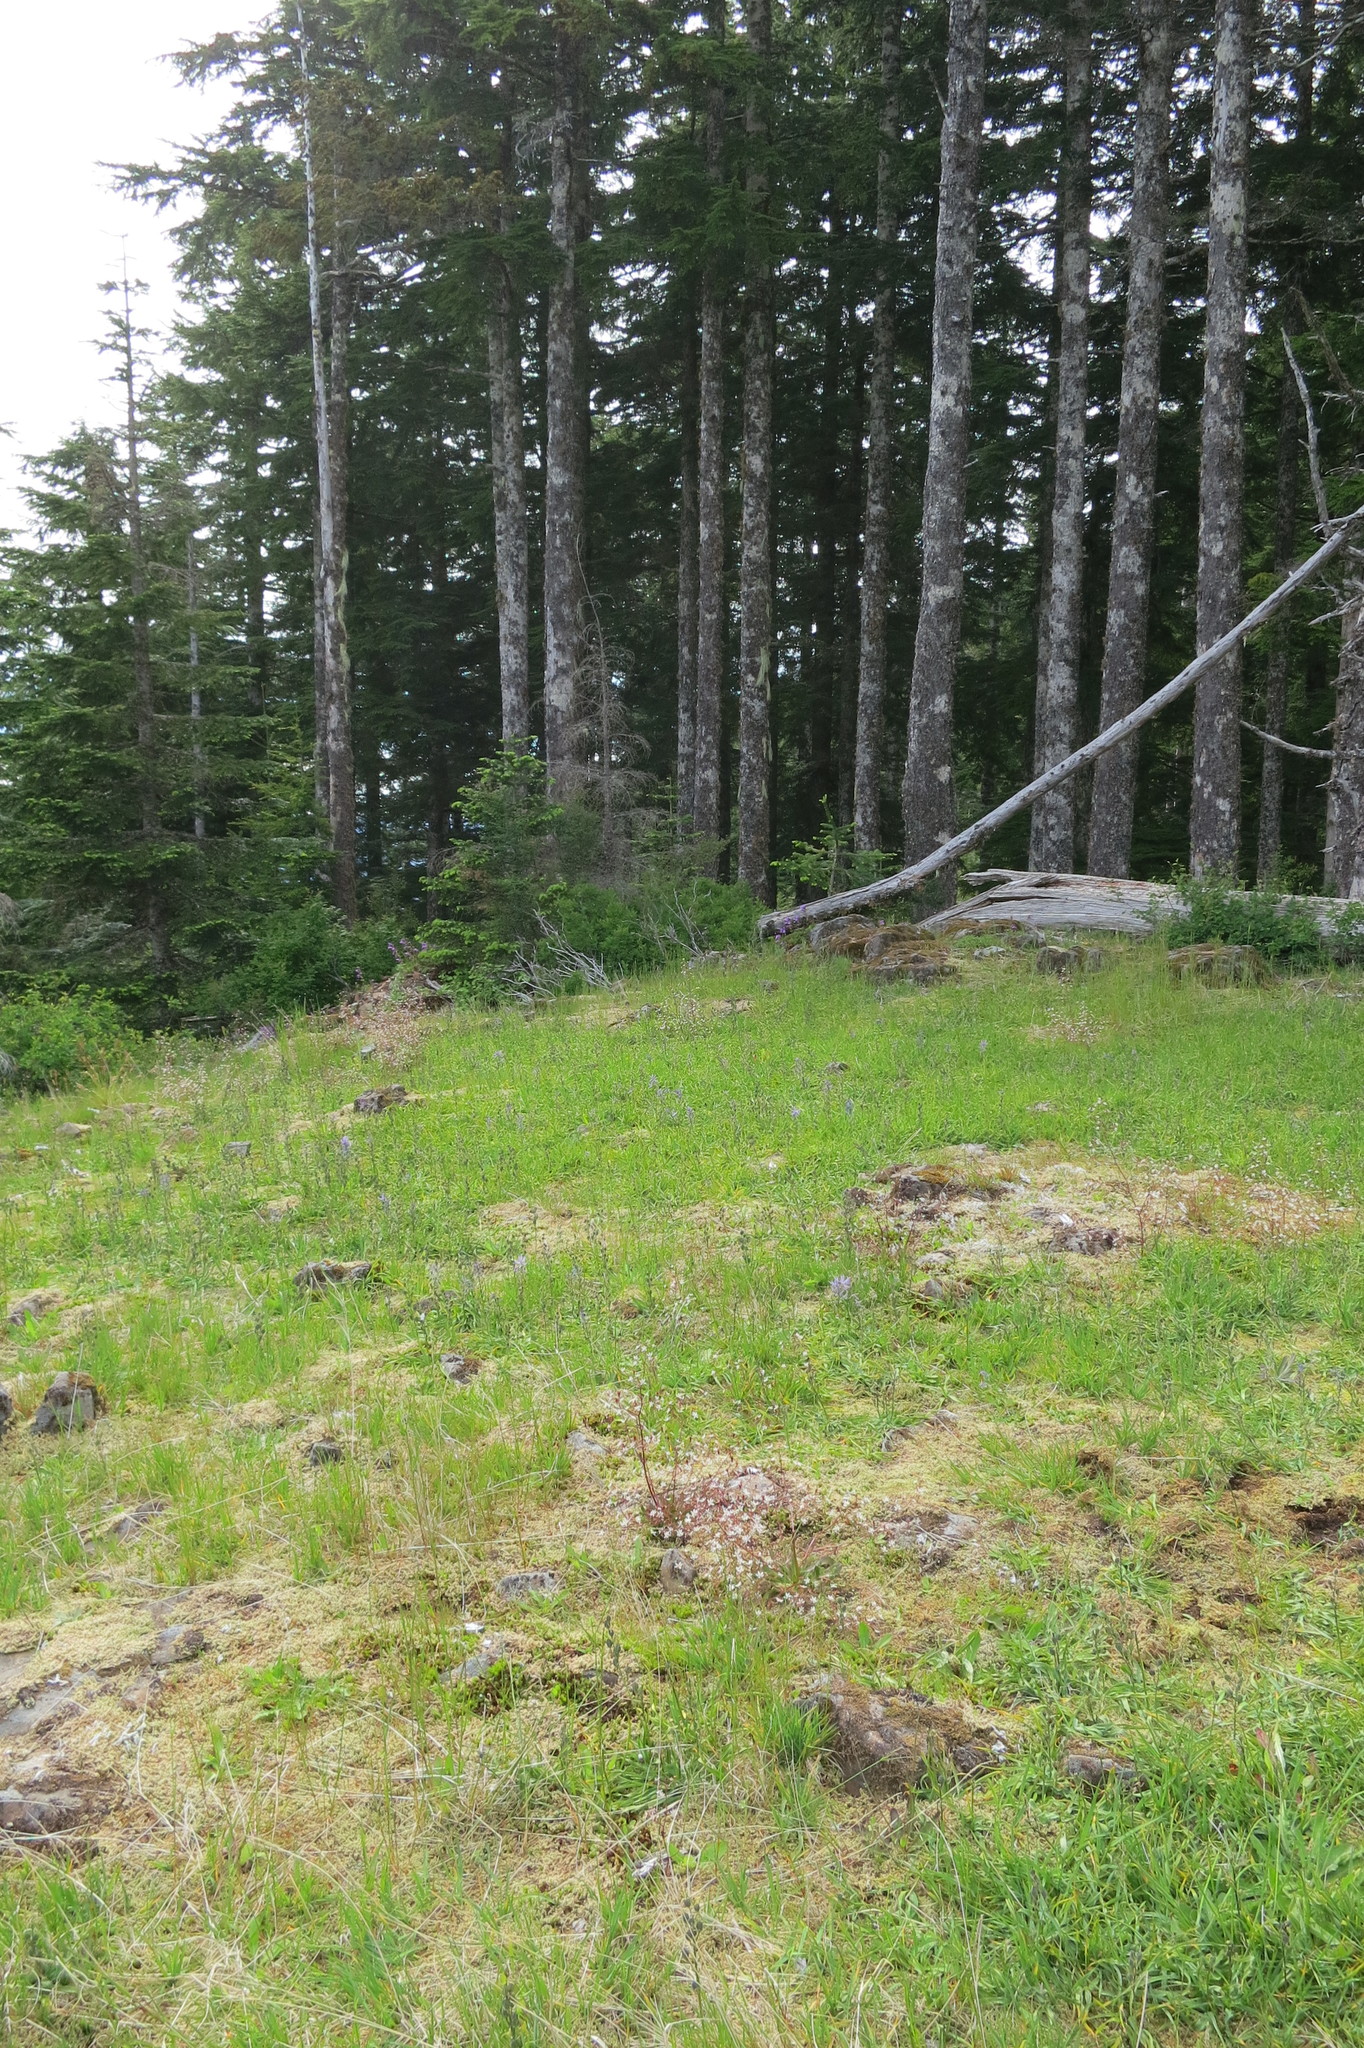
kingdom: Plantae
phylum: Tracheophyta
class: Liliopsida
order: Liliales
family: Liliaceae
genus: Erythronium
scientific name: Erythronium elegans
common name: Elegant fawn-lily
